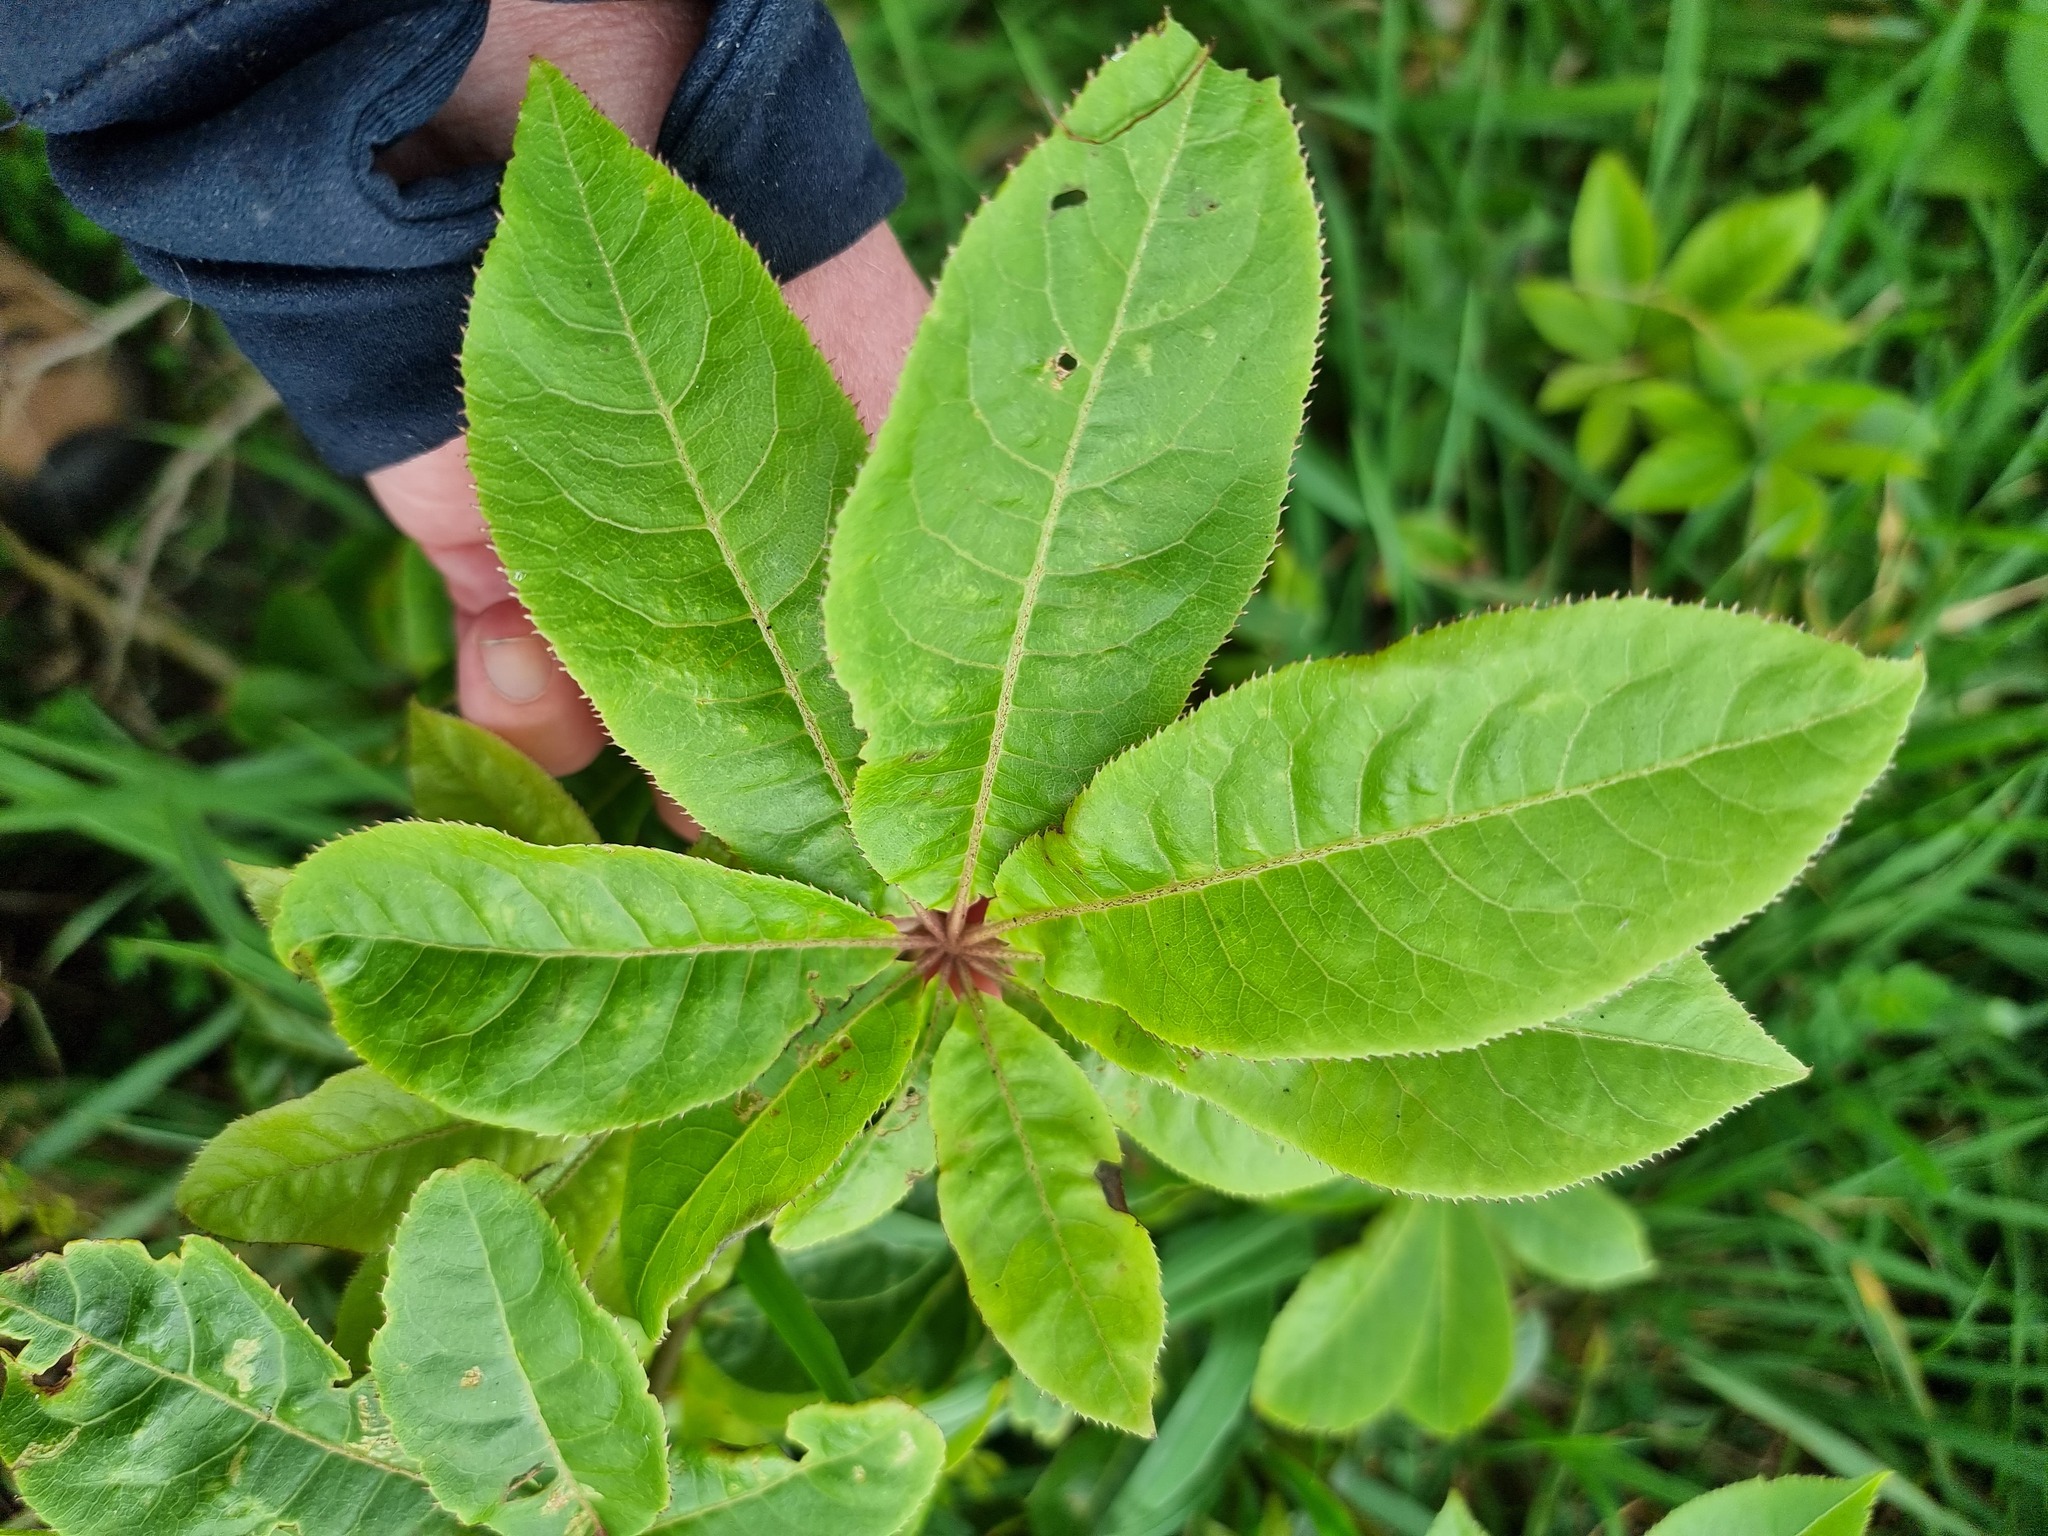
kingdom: Plantae
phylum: Tracheophyta
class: Magnoliopsida
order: Apiales
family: Araliaceae
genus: Schefflera
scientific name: Schefflera digitata
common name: Pate
